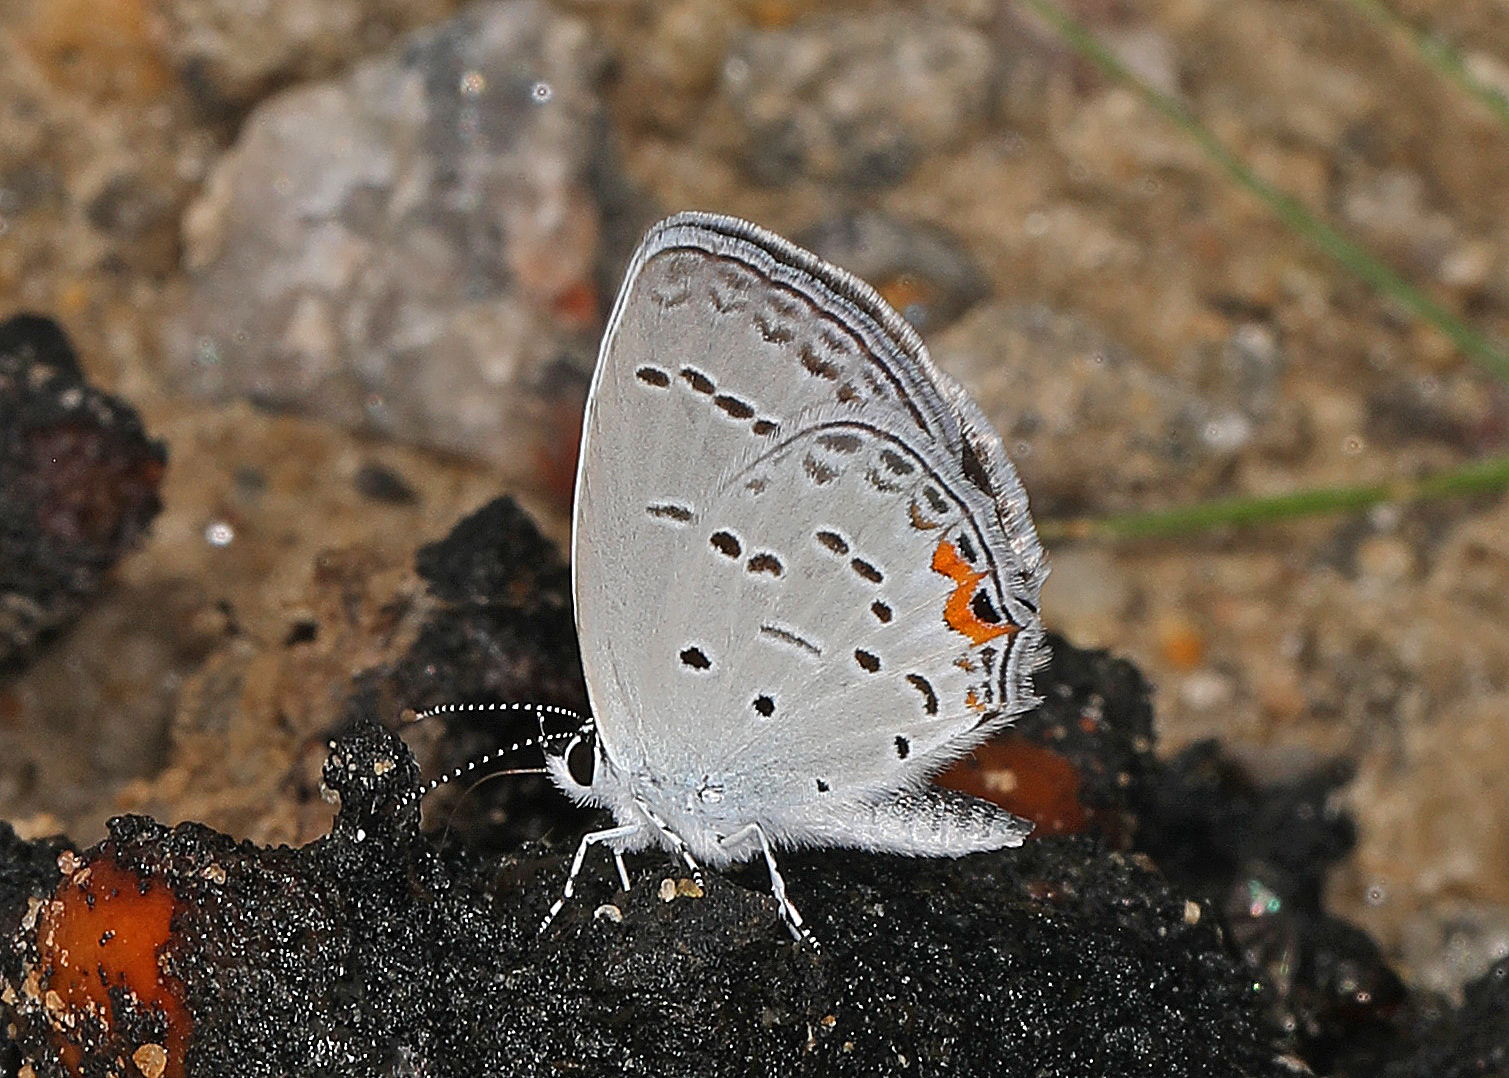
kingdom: Animalia
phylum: Arthropoda
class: Insecta
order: Lepidoptera
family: Lycaenidae
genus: Elkalyce
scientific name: Elkalyce comyntas
